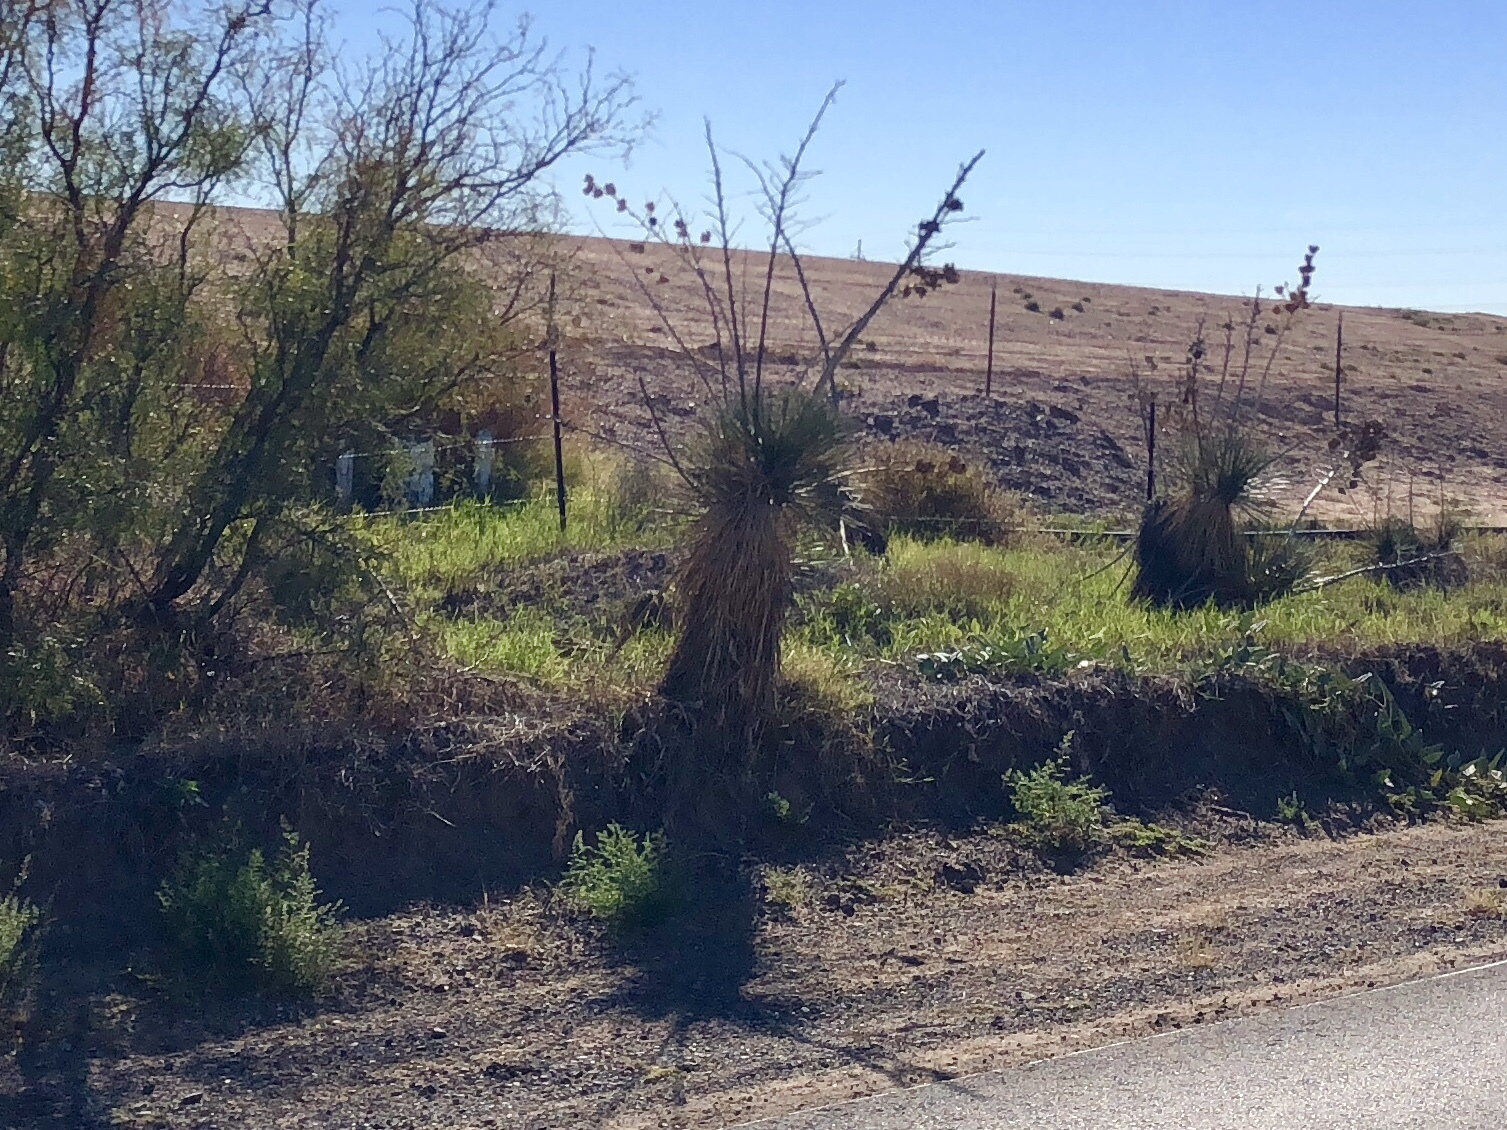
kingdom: Plantae
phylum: Tracheophyta
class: Liliopsida
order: Asparagales
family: Asparagaceae
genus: Yucca
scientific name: Yucca elata
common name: Palmella
